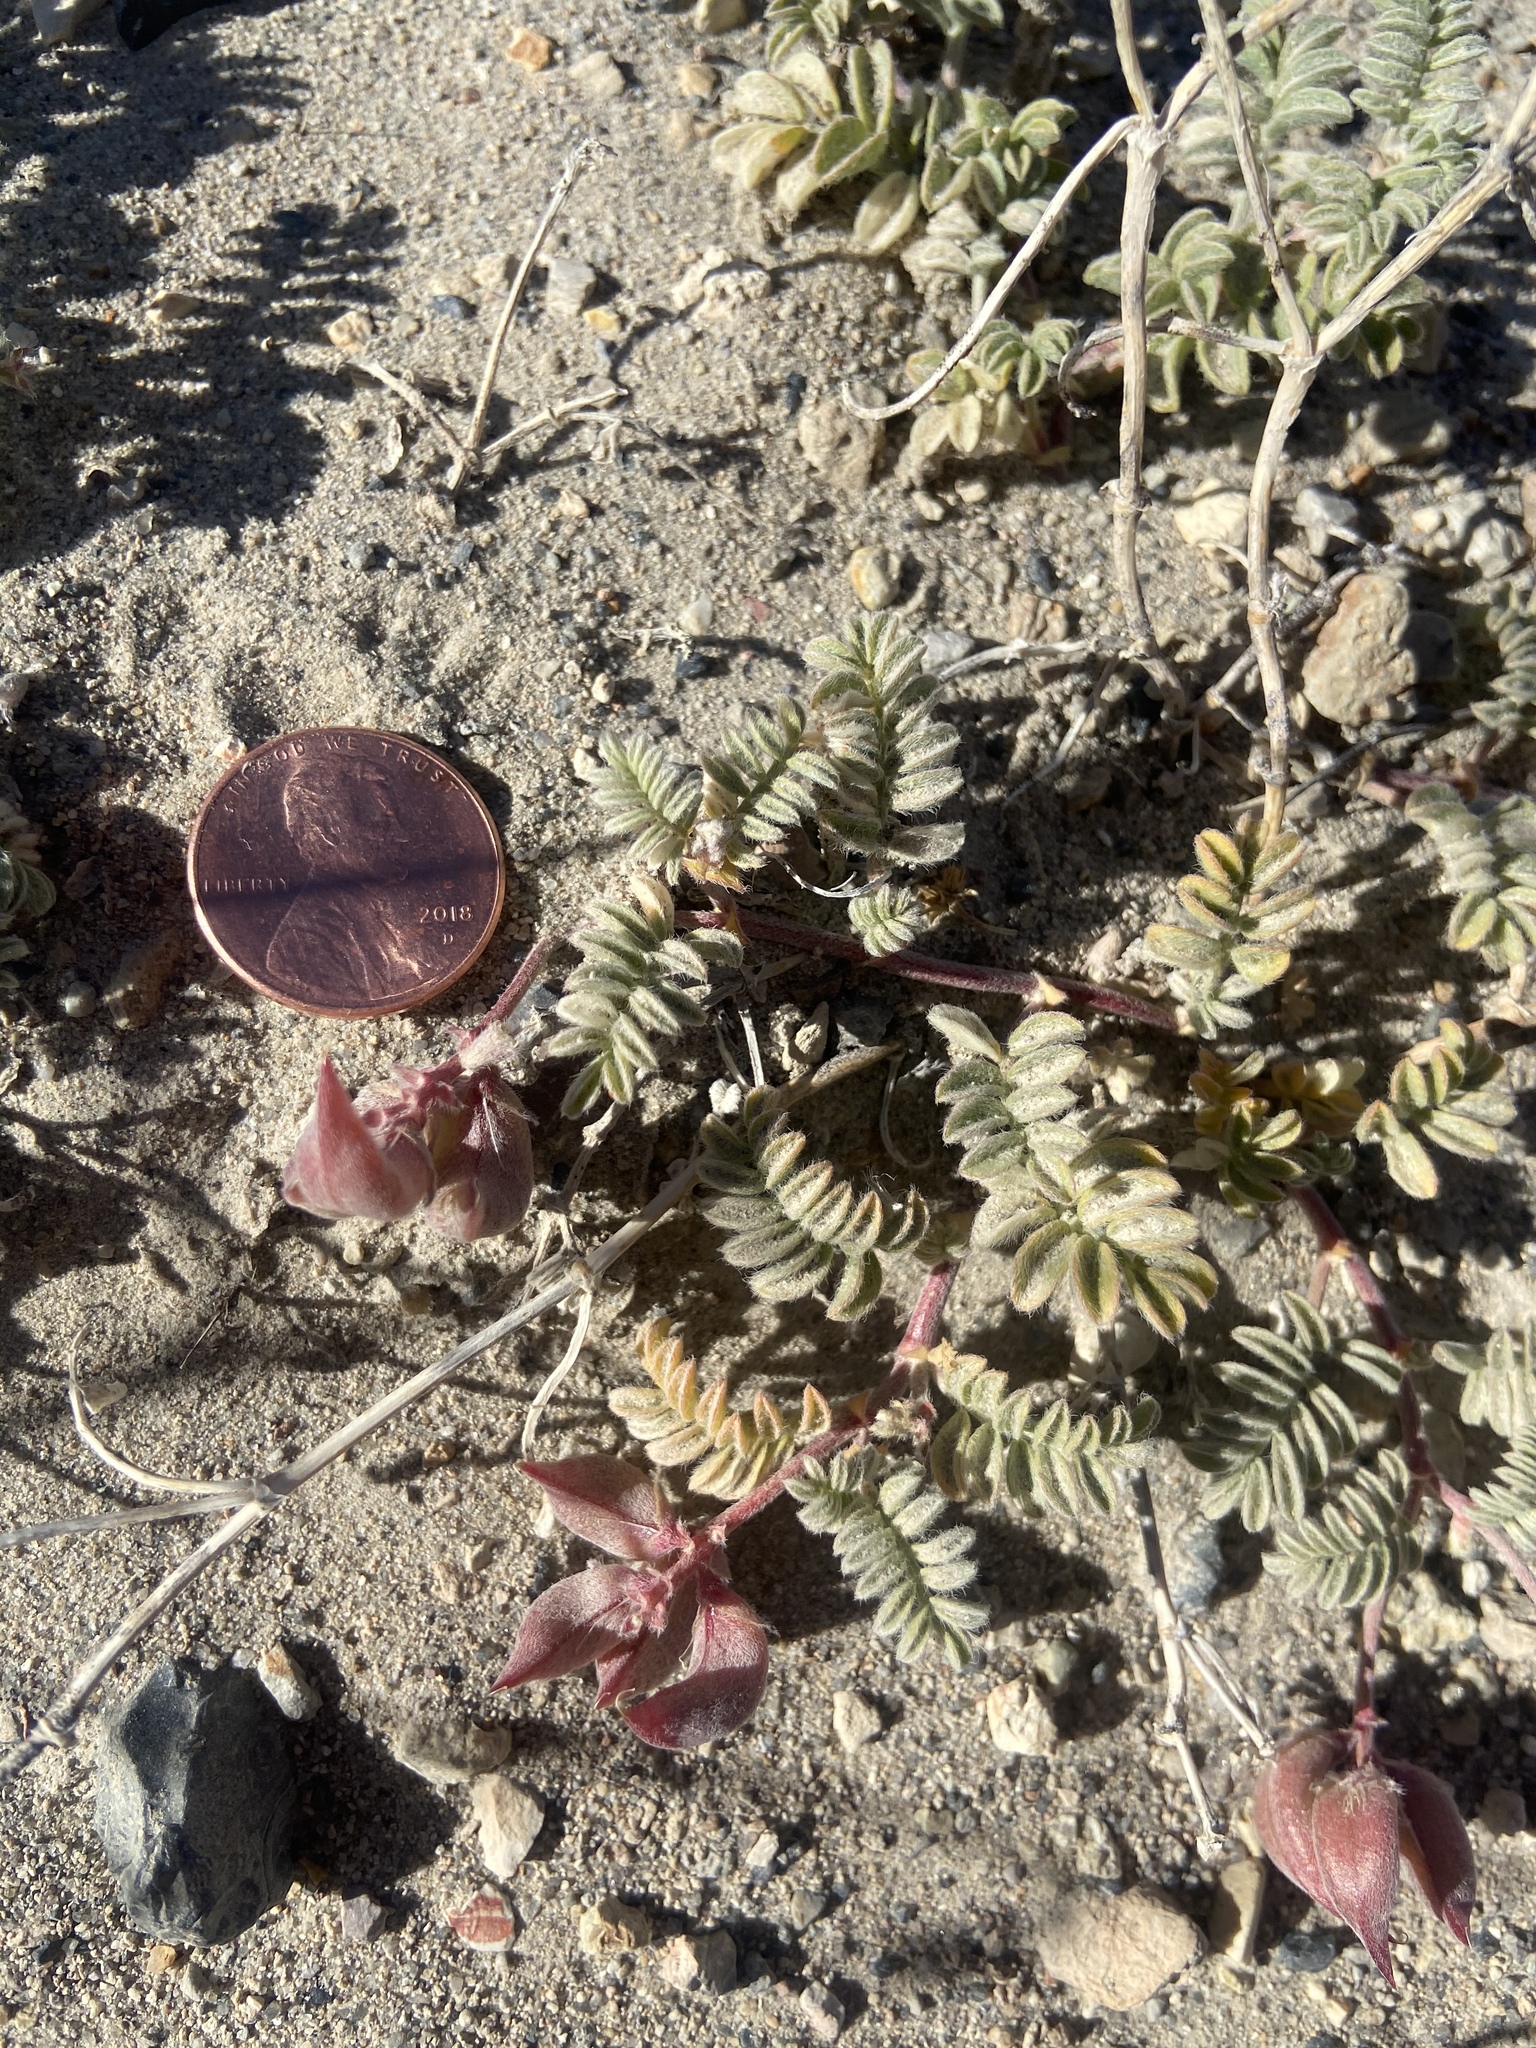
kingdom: Plantae
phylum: Tracheophyta
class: Magnoliopsida
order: Fabales
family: Fabaceae
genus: Astragalus
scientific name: Astragalus monoensis
